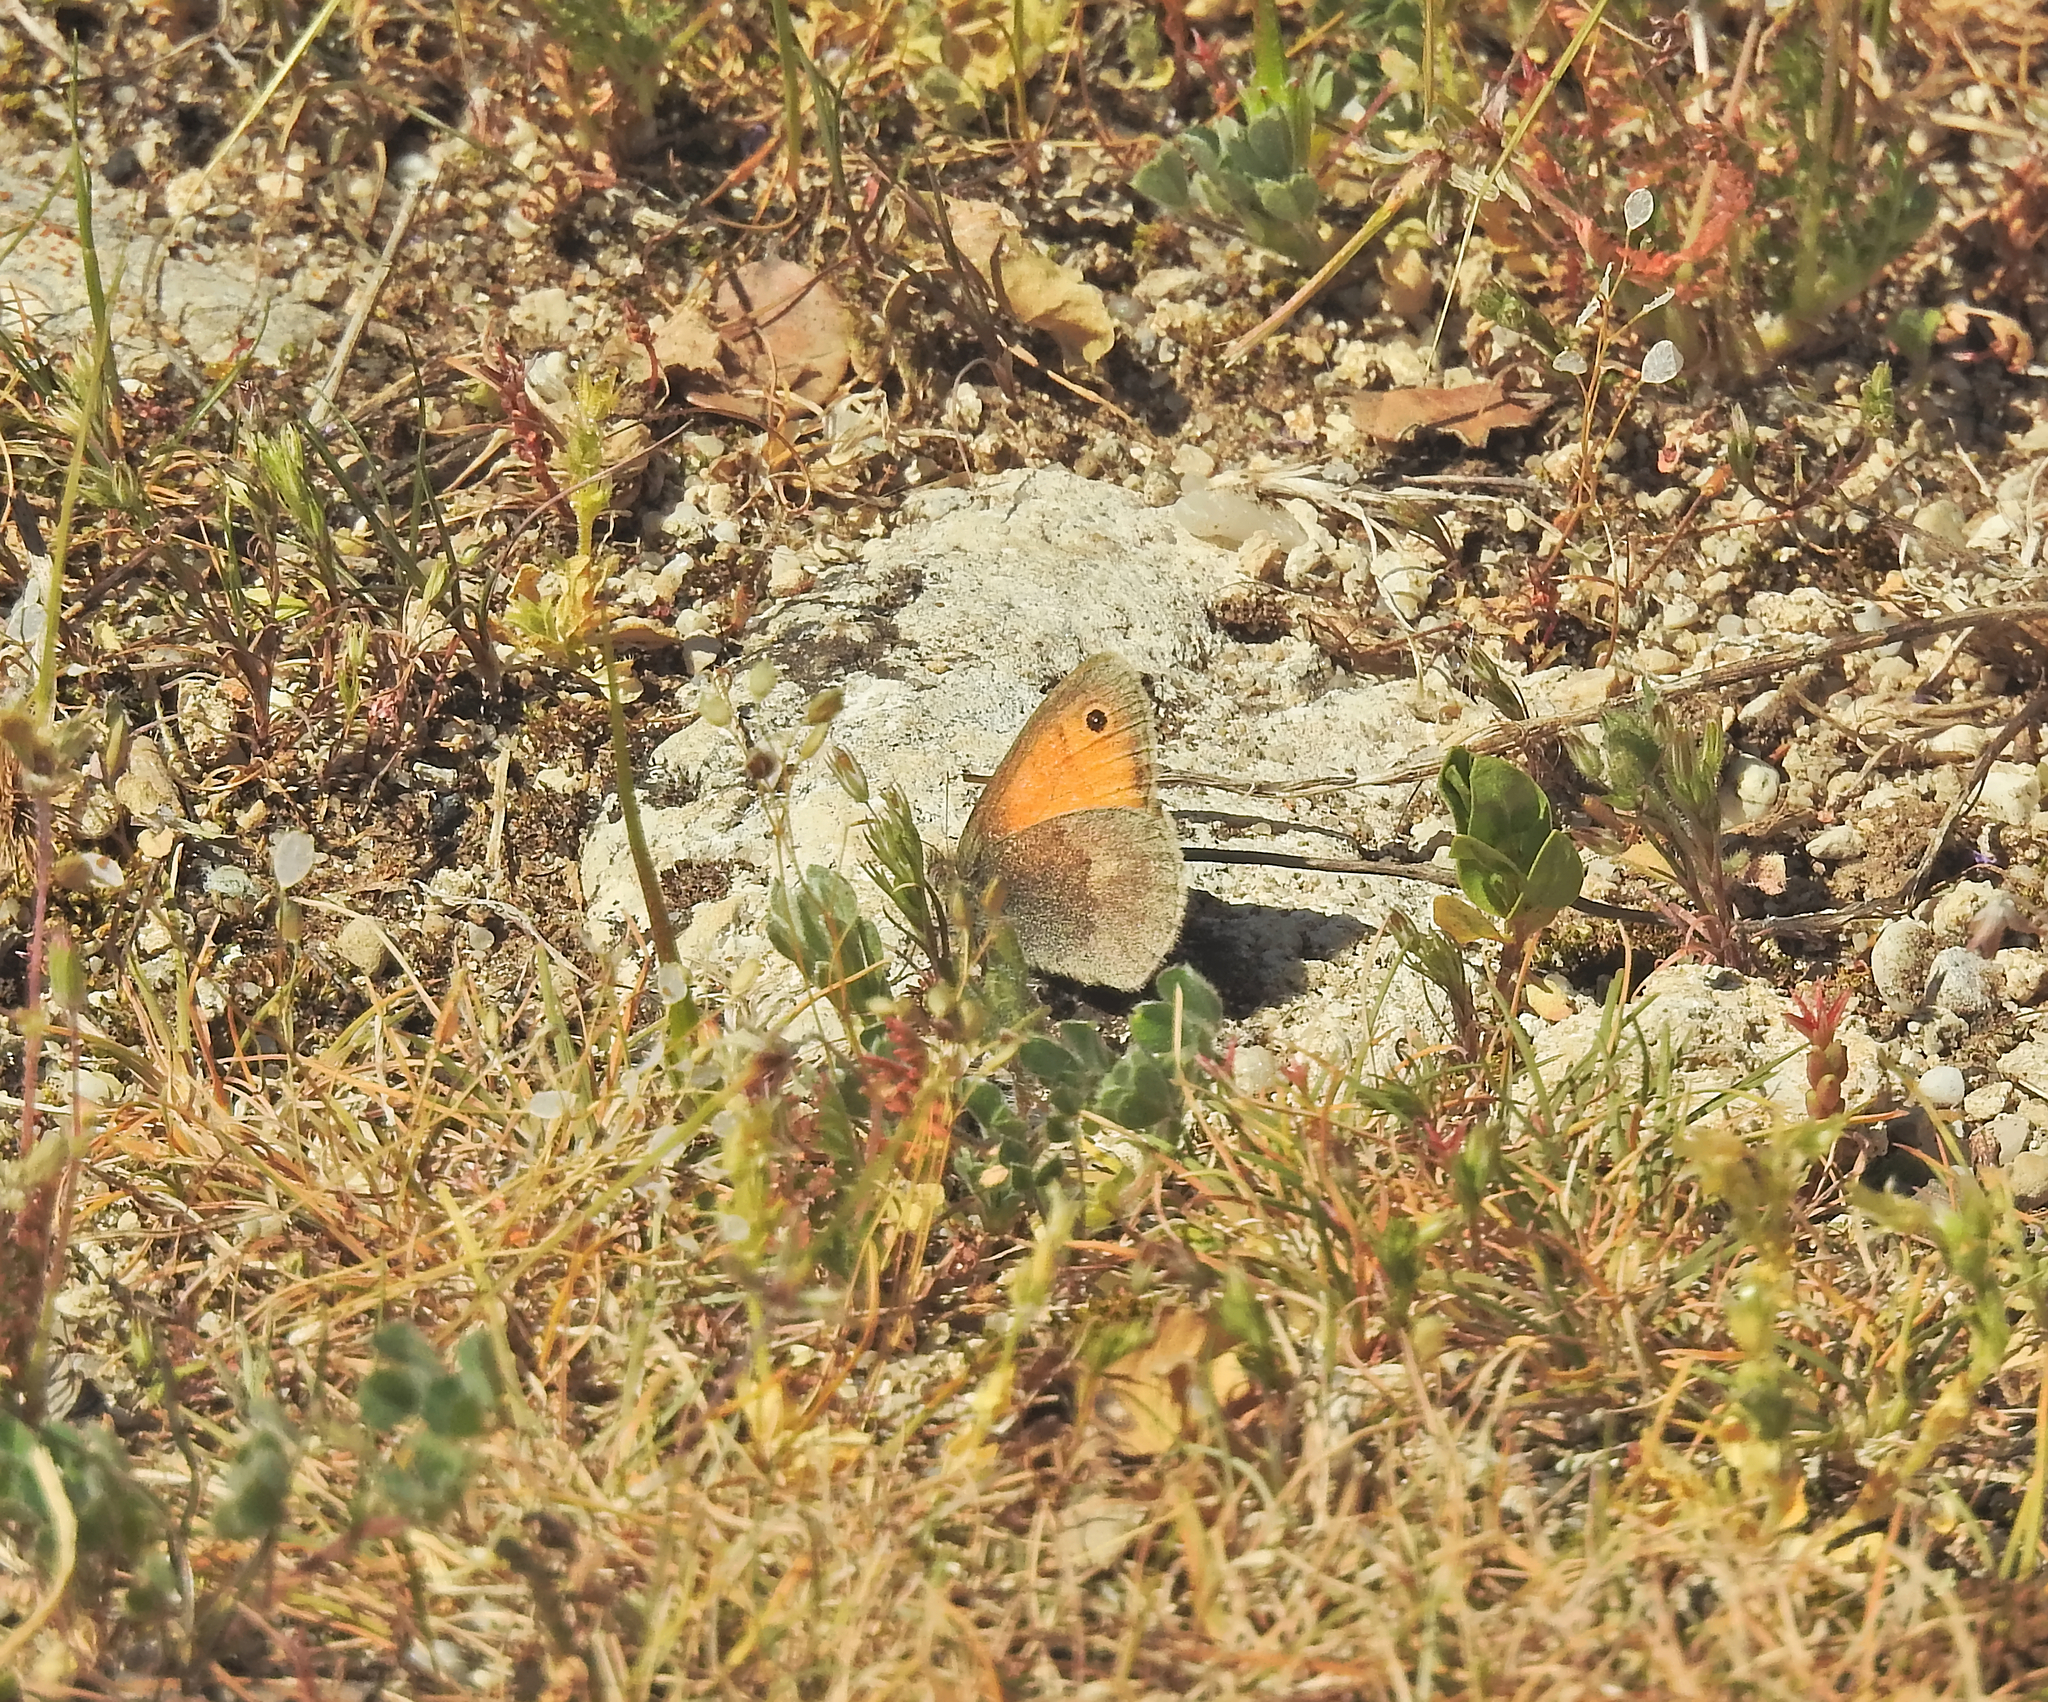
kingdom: Animalia
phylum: Arthropoda
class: Insecta
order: Lepidoptera
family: Nymphalidae
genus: Coenonympha
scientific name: Coenonympha pamphilus
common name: Small heath
